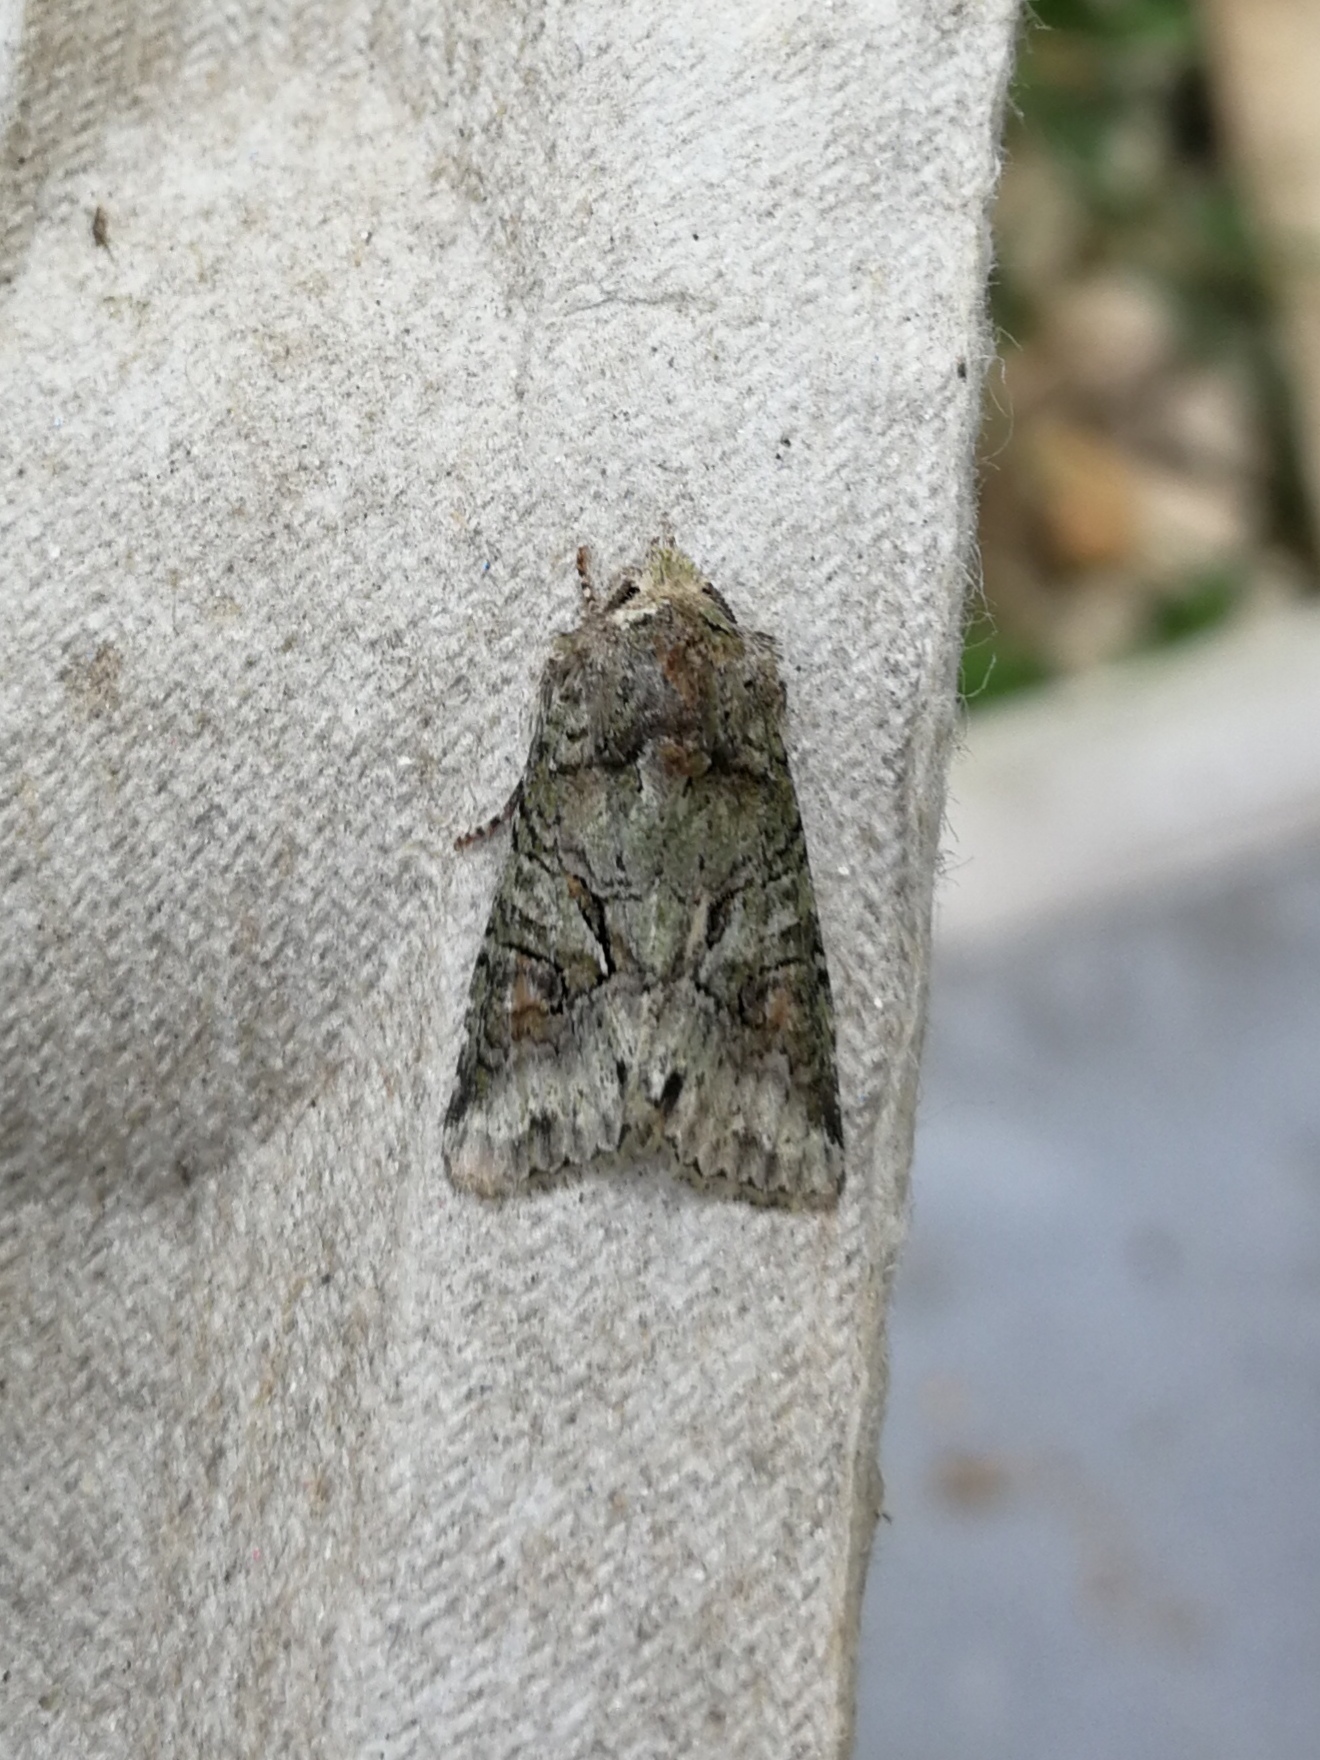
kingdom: Animalia
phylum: Arthropoda
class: Insecta
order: Lepidoptera
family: Noctuidae
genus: Dryobotodes
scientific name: Dryobotodes roboris
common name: Southern brindled green
